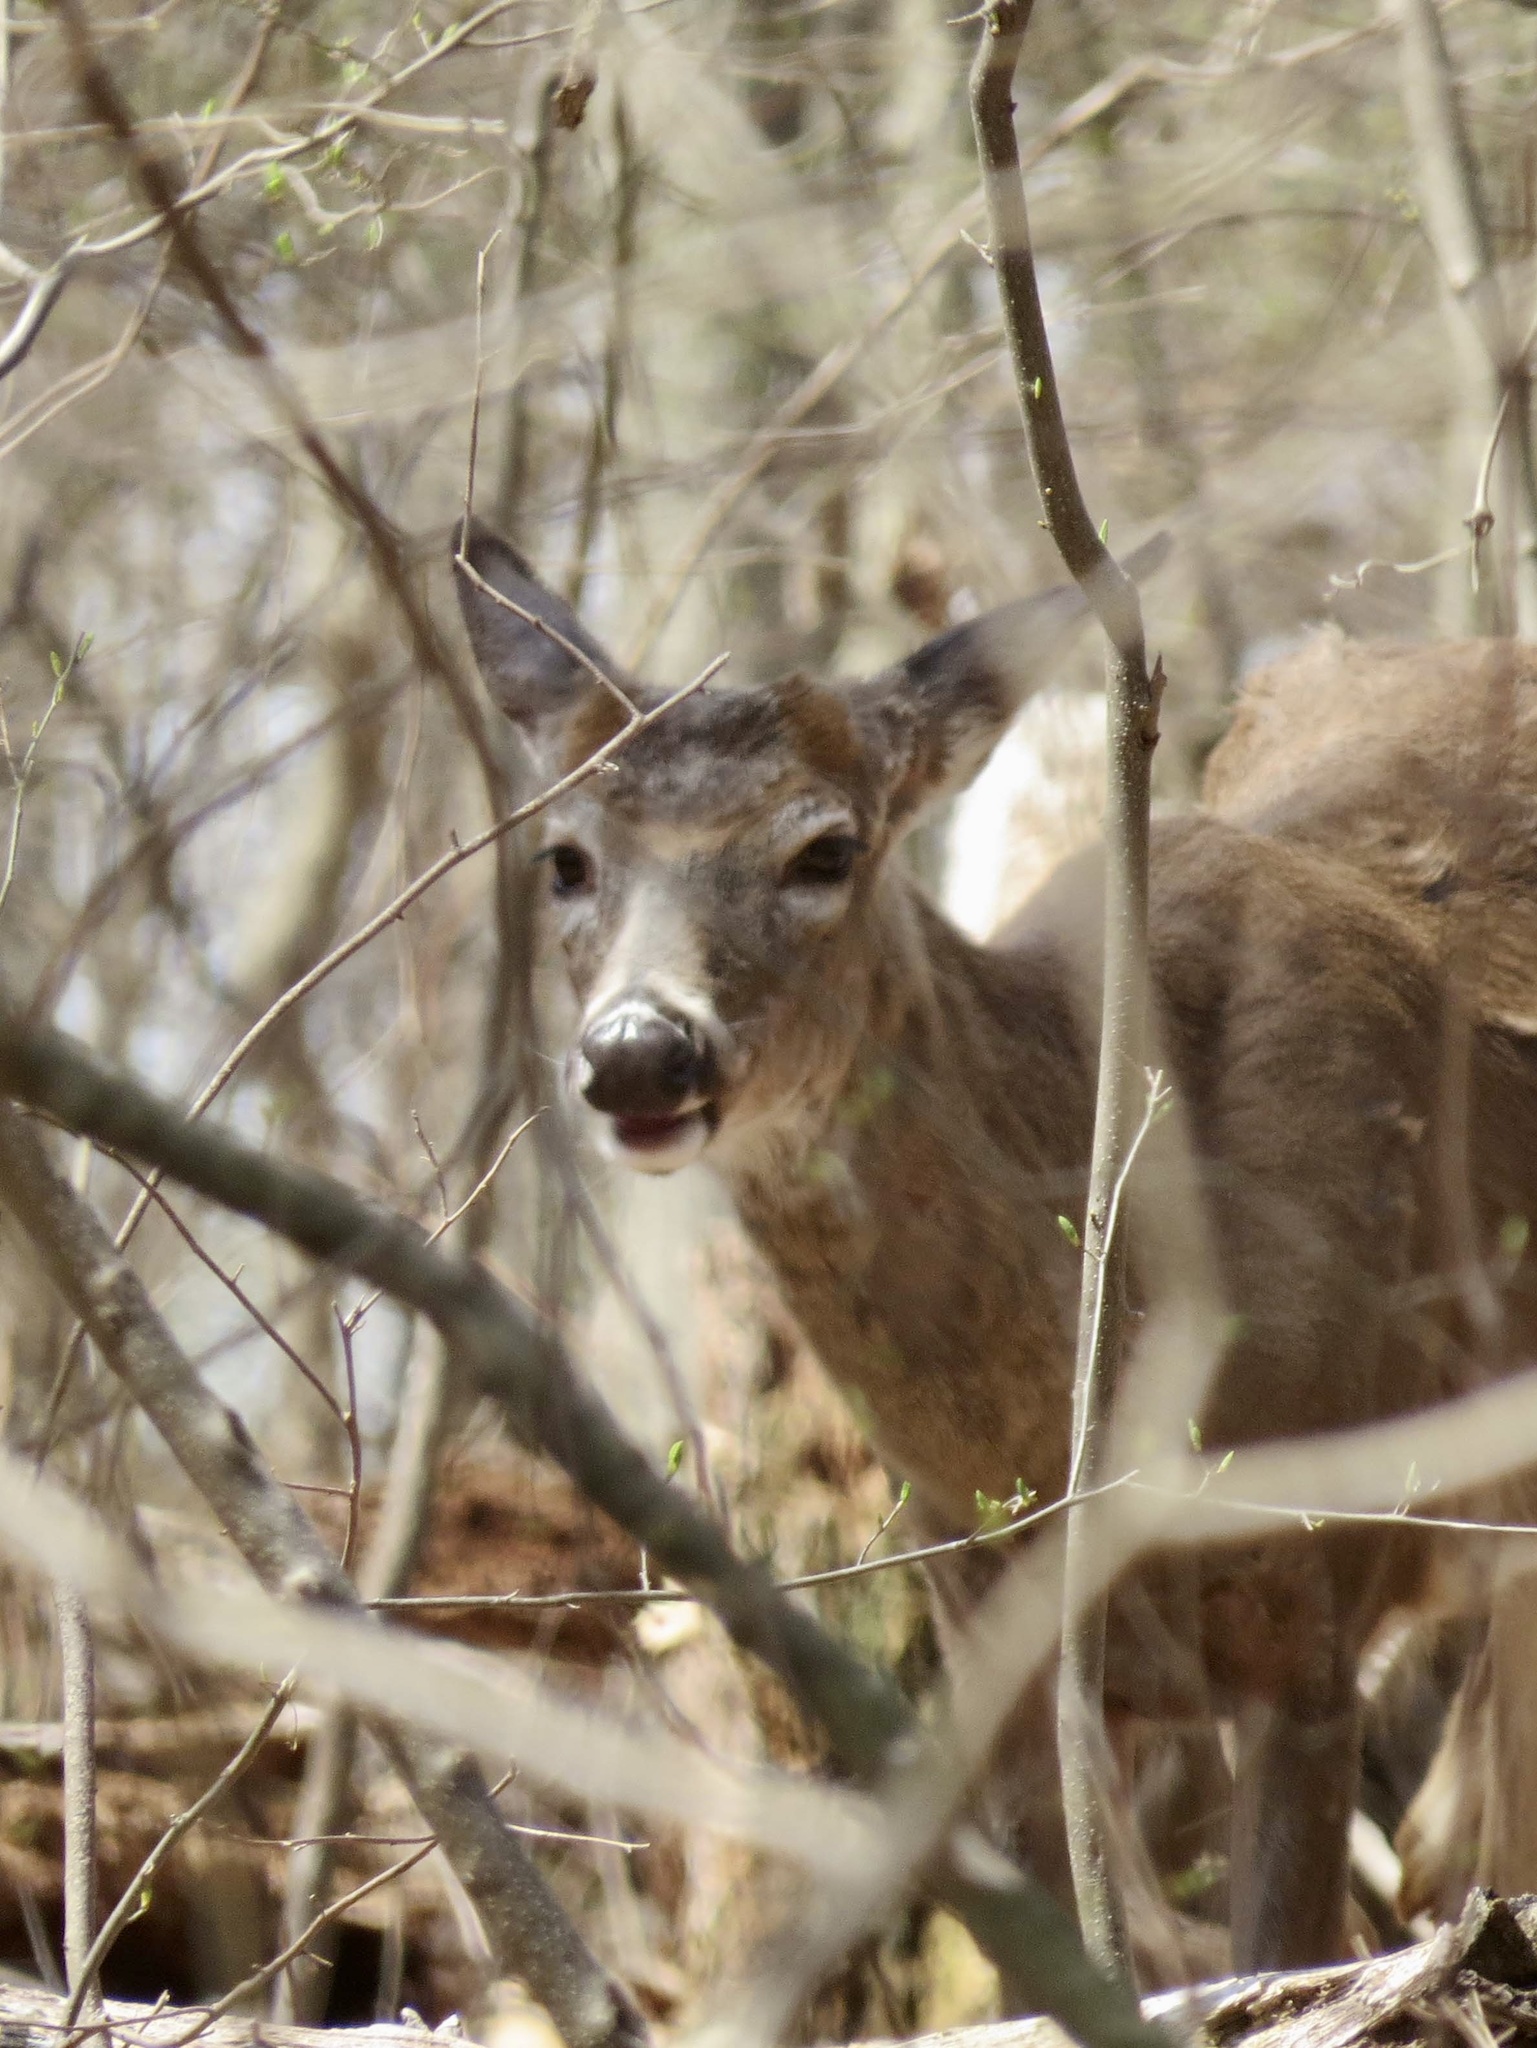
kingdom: Animalia
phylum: Chordata
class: Mammalia
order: Artiodactyla
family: Cervidae
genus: Odocoileus
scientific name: Odocoileus virginianus
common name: White-tailed deer
